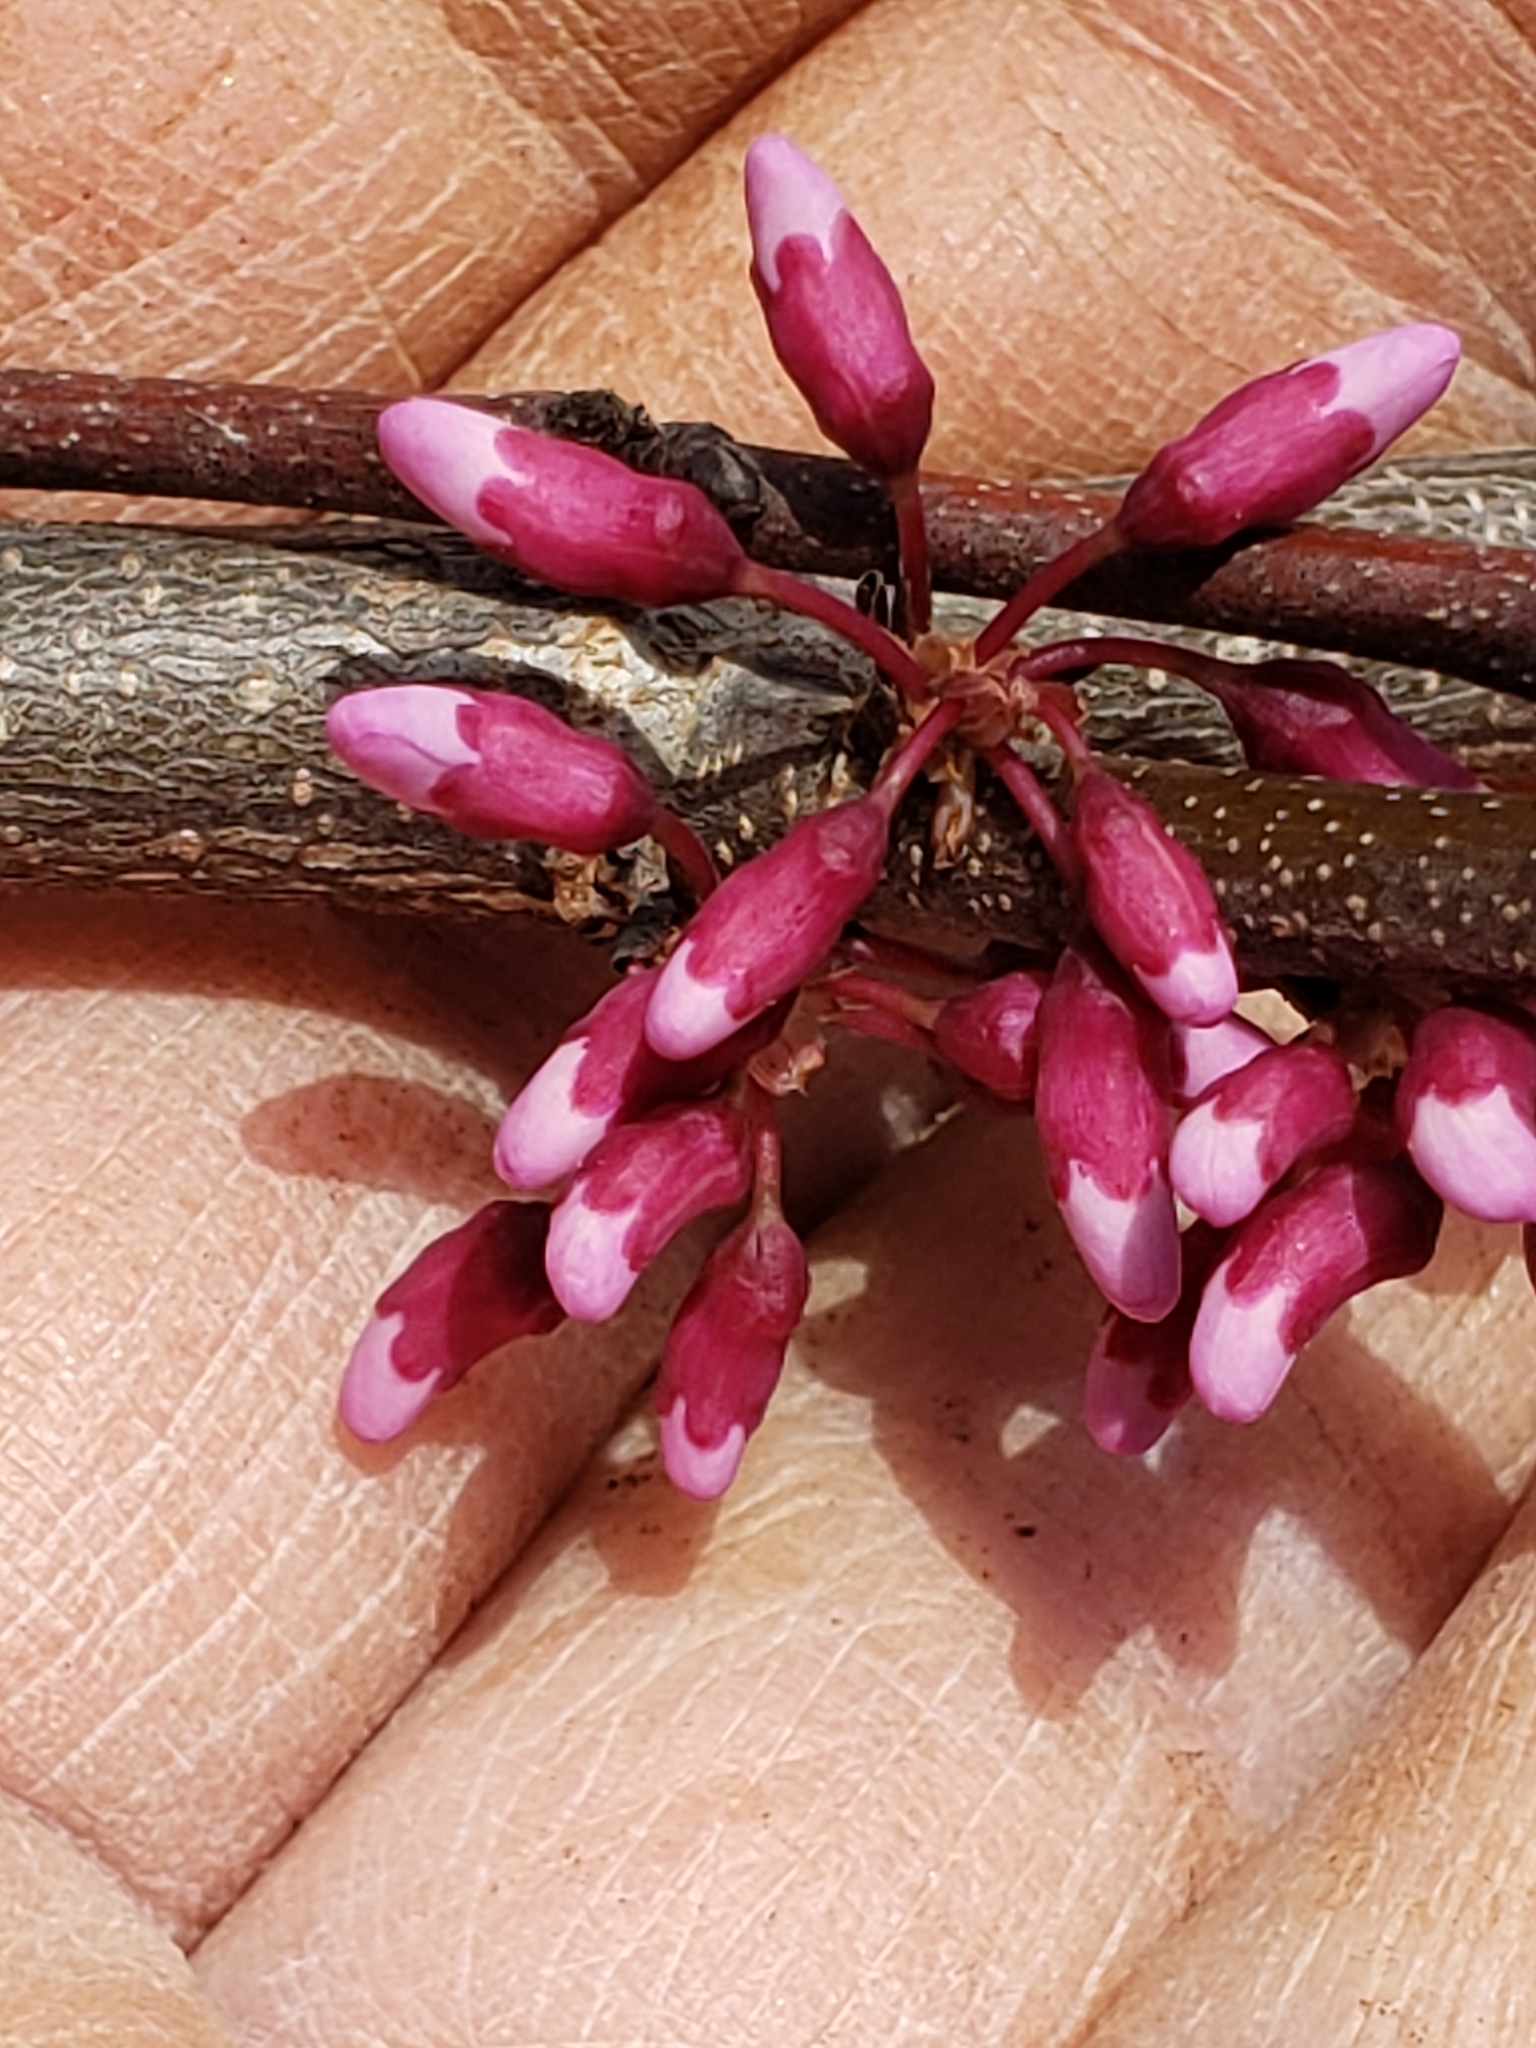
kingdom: Plantae
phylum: Tracheophyta
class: Magnoliopsida
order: Fabales
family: Fabaceae
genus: Cercis
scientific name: Cercis canadensis
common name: Eastern redbud
